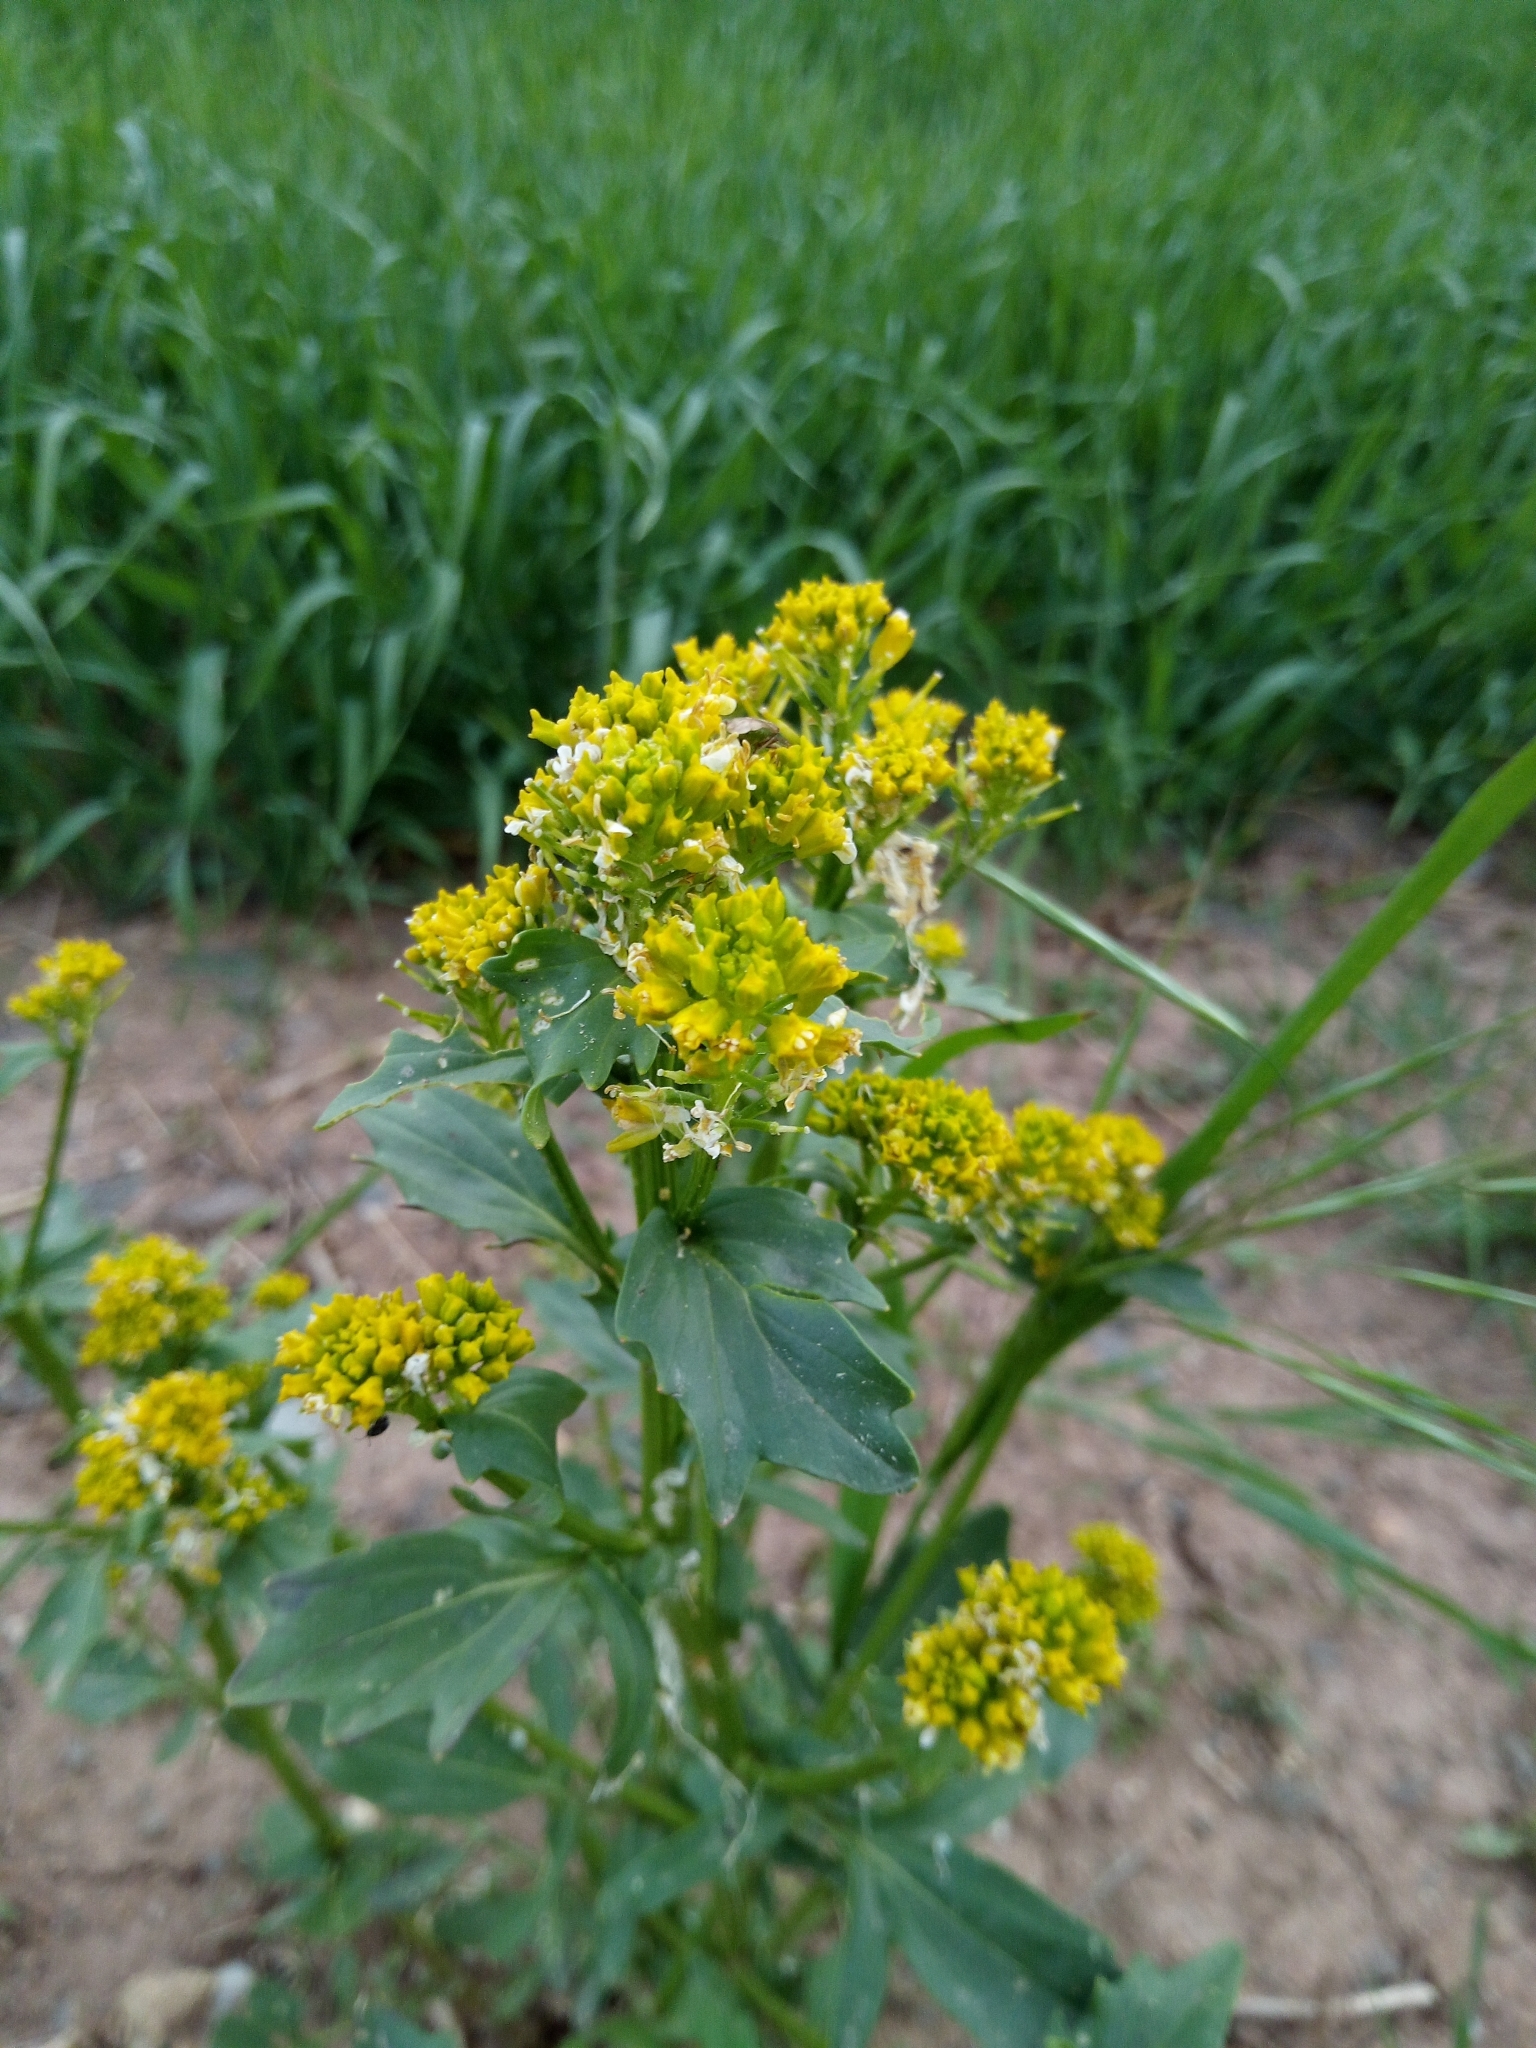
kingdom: Plantae
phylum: Tracheophyta
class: Magnoliopsida
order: Brassicales
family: Brassicaceae
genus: Barbarea
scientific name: Barbarea vulgaris
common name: Cressy-greens
